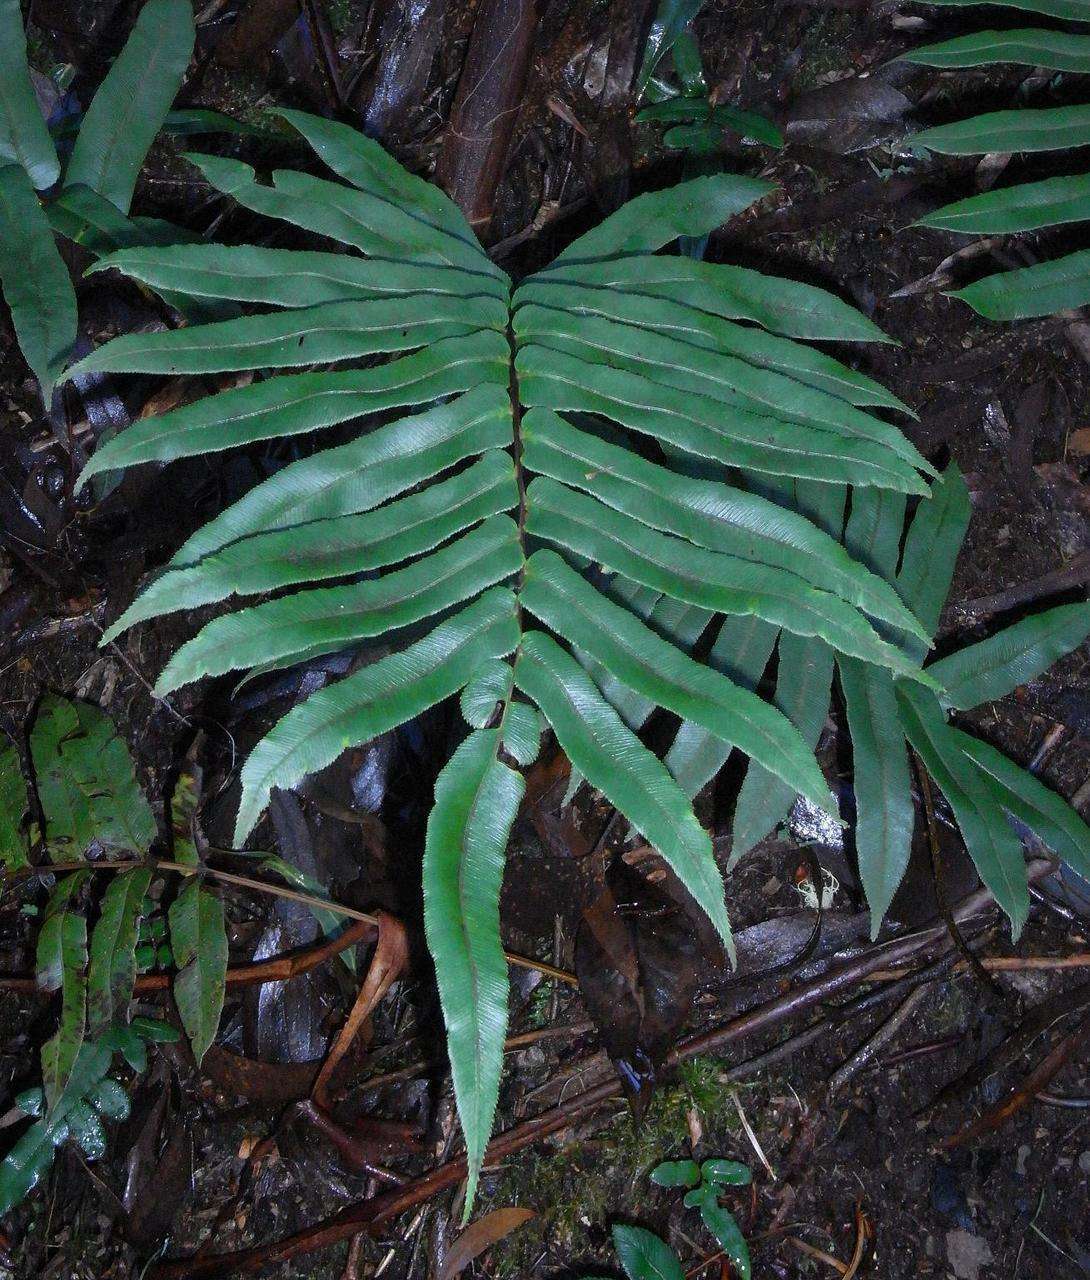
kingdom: Plantae
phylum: Tracheophyta
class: Polypodiopsida
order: Polypodiales
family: Blechnaceae
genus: Parablechnum
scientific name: Parablechnum wattsii
